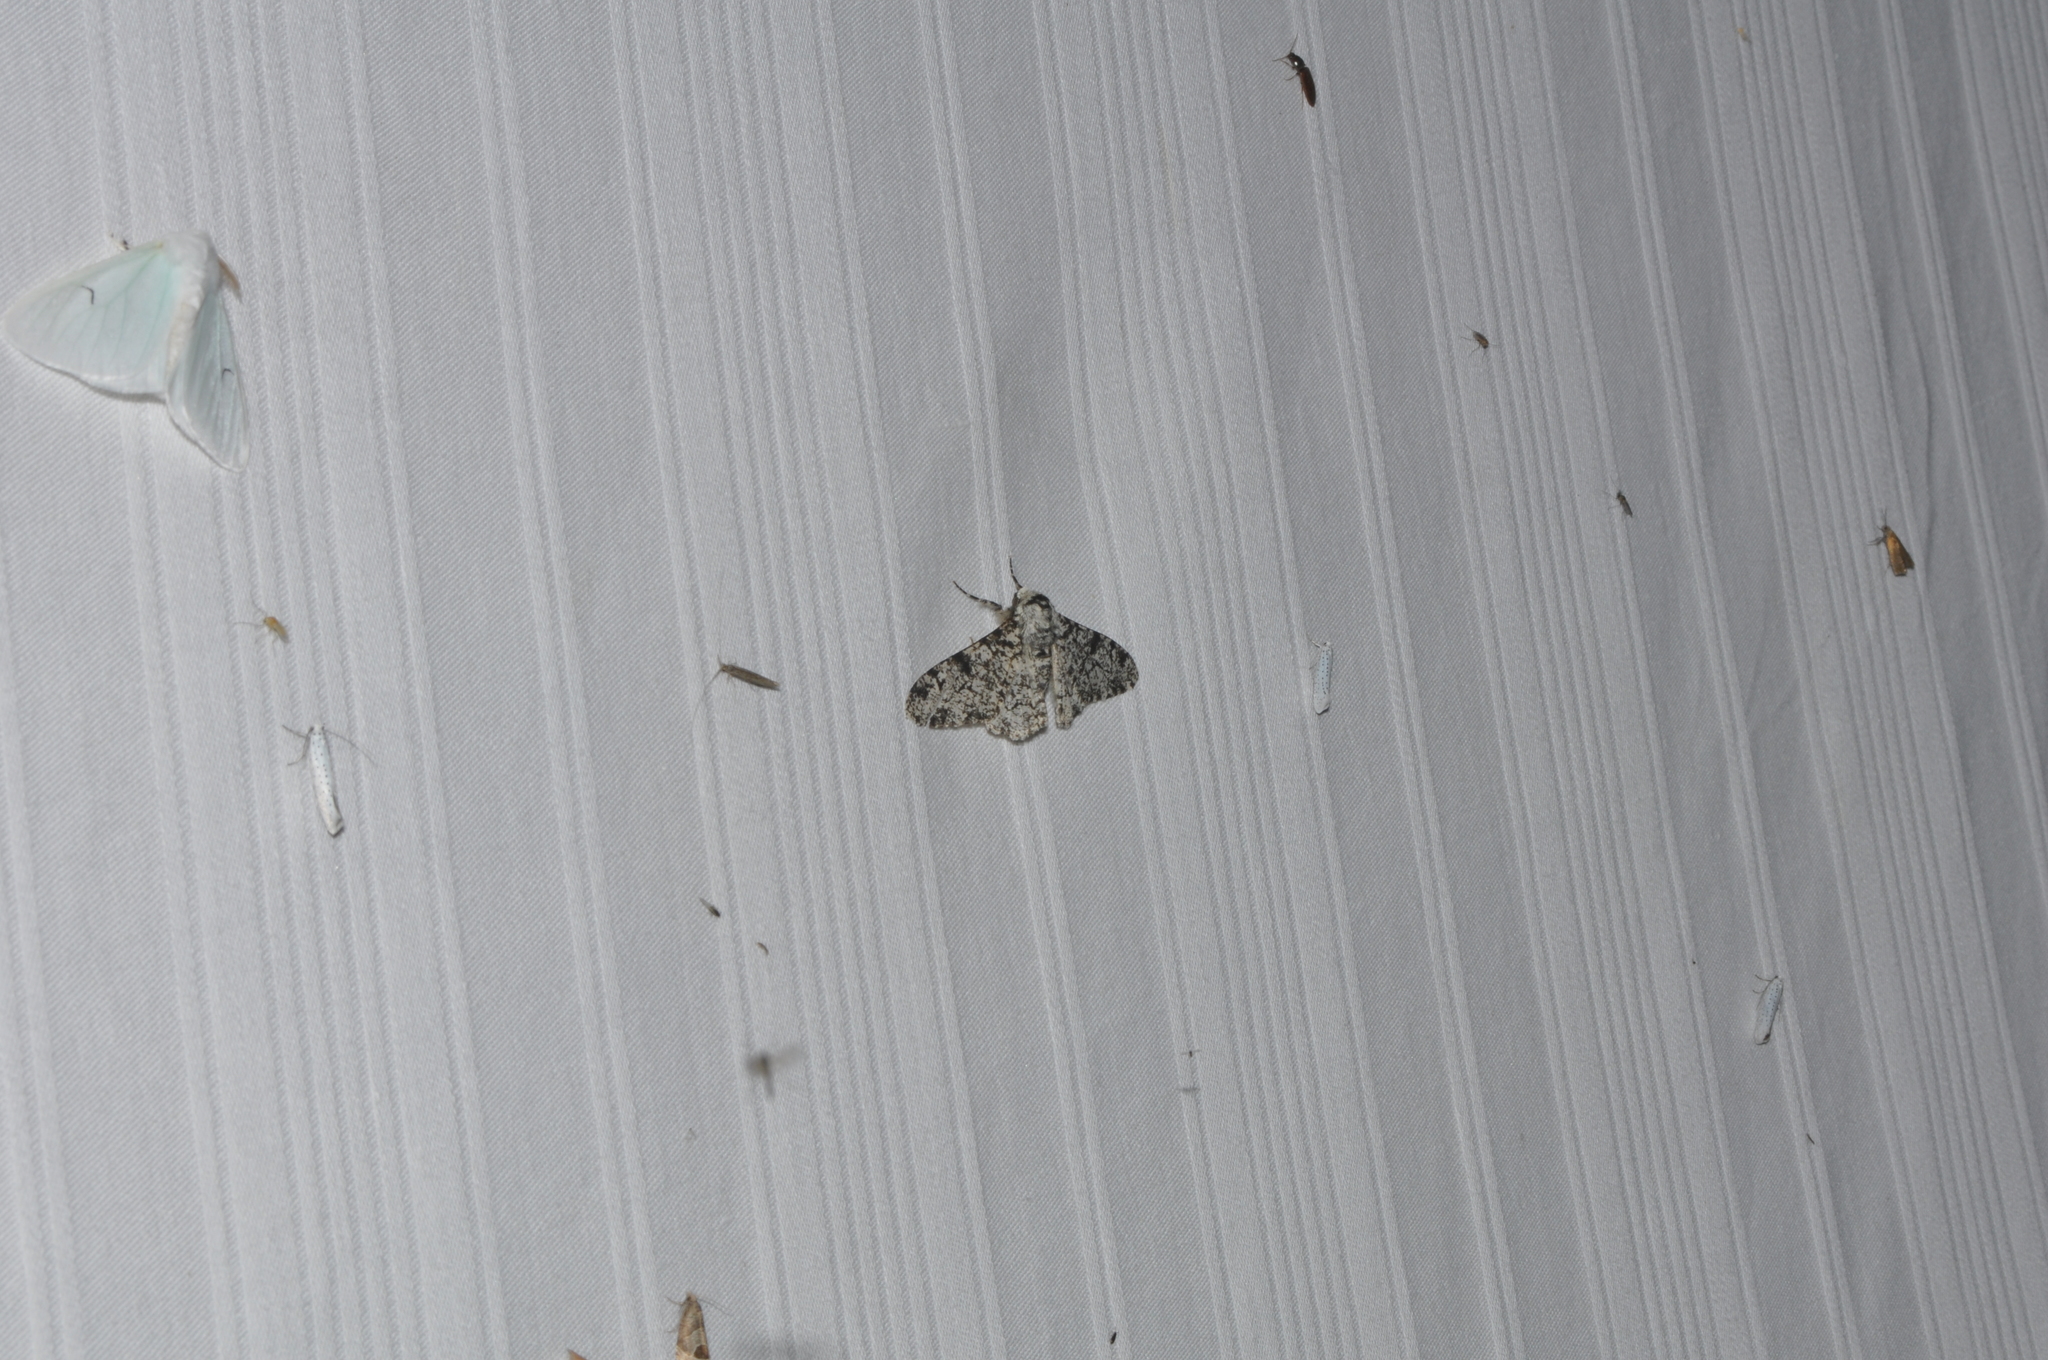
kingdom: Animalia
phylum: Arthropoda
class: Insecta
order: Lepidoptera
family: Geometridae
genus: Biston
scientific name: Biston betularia
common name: Peppered moth
